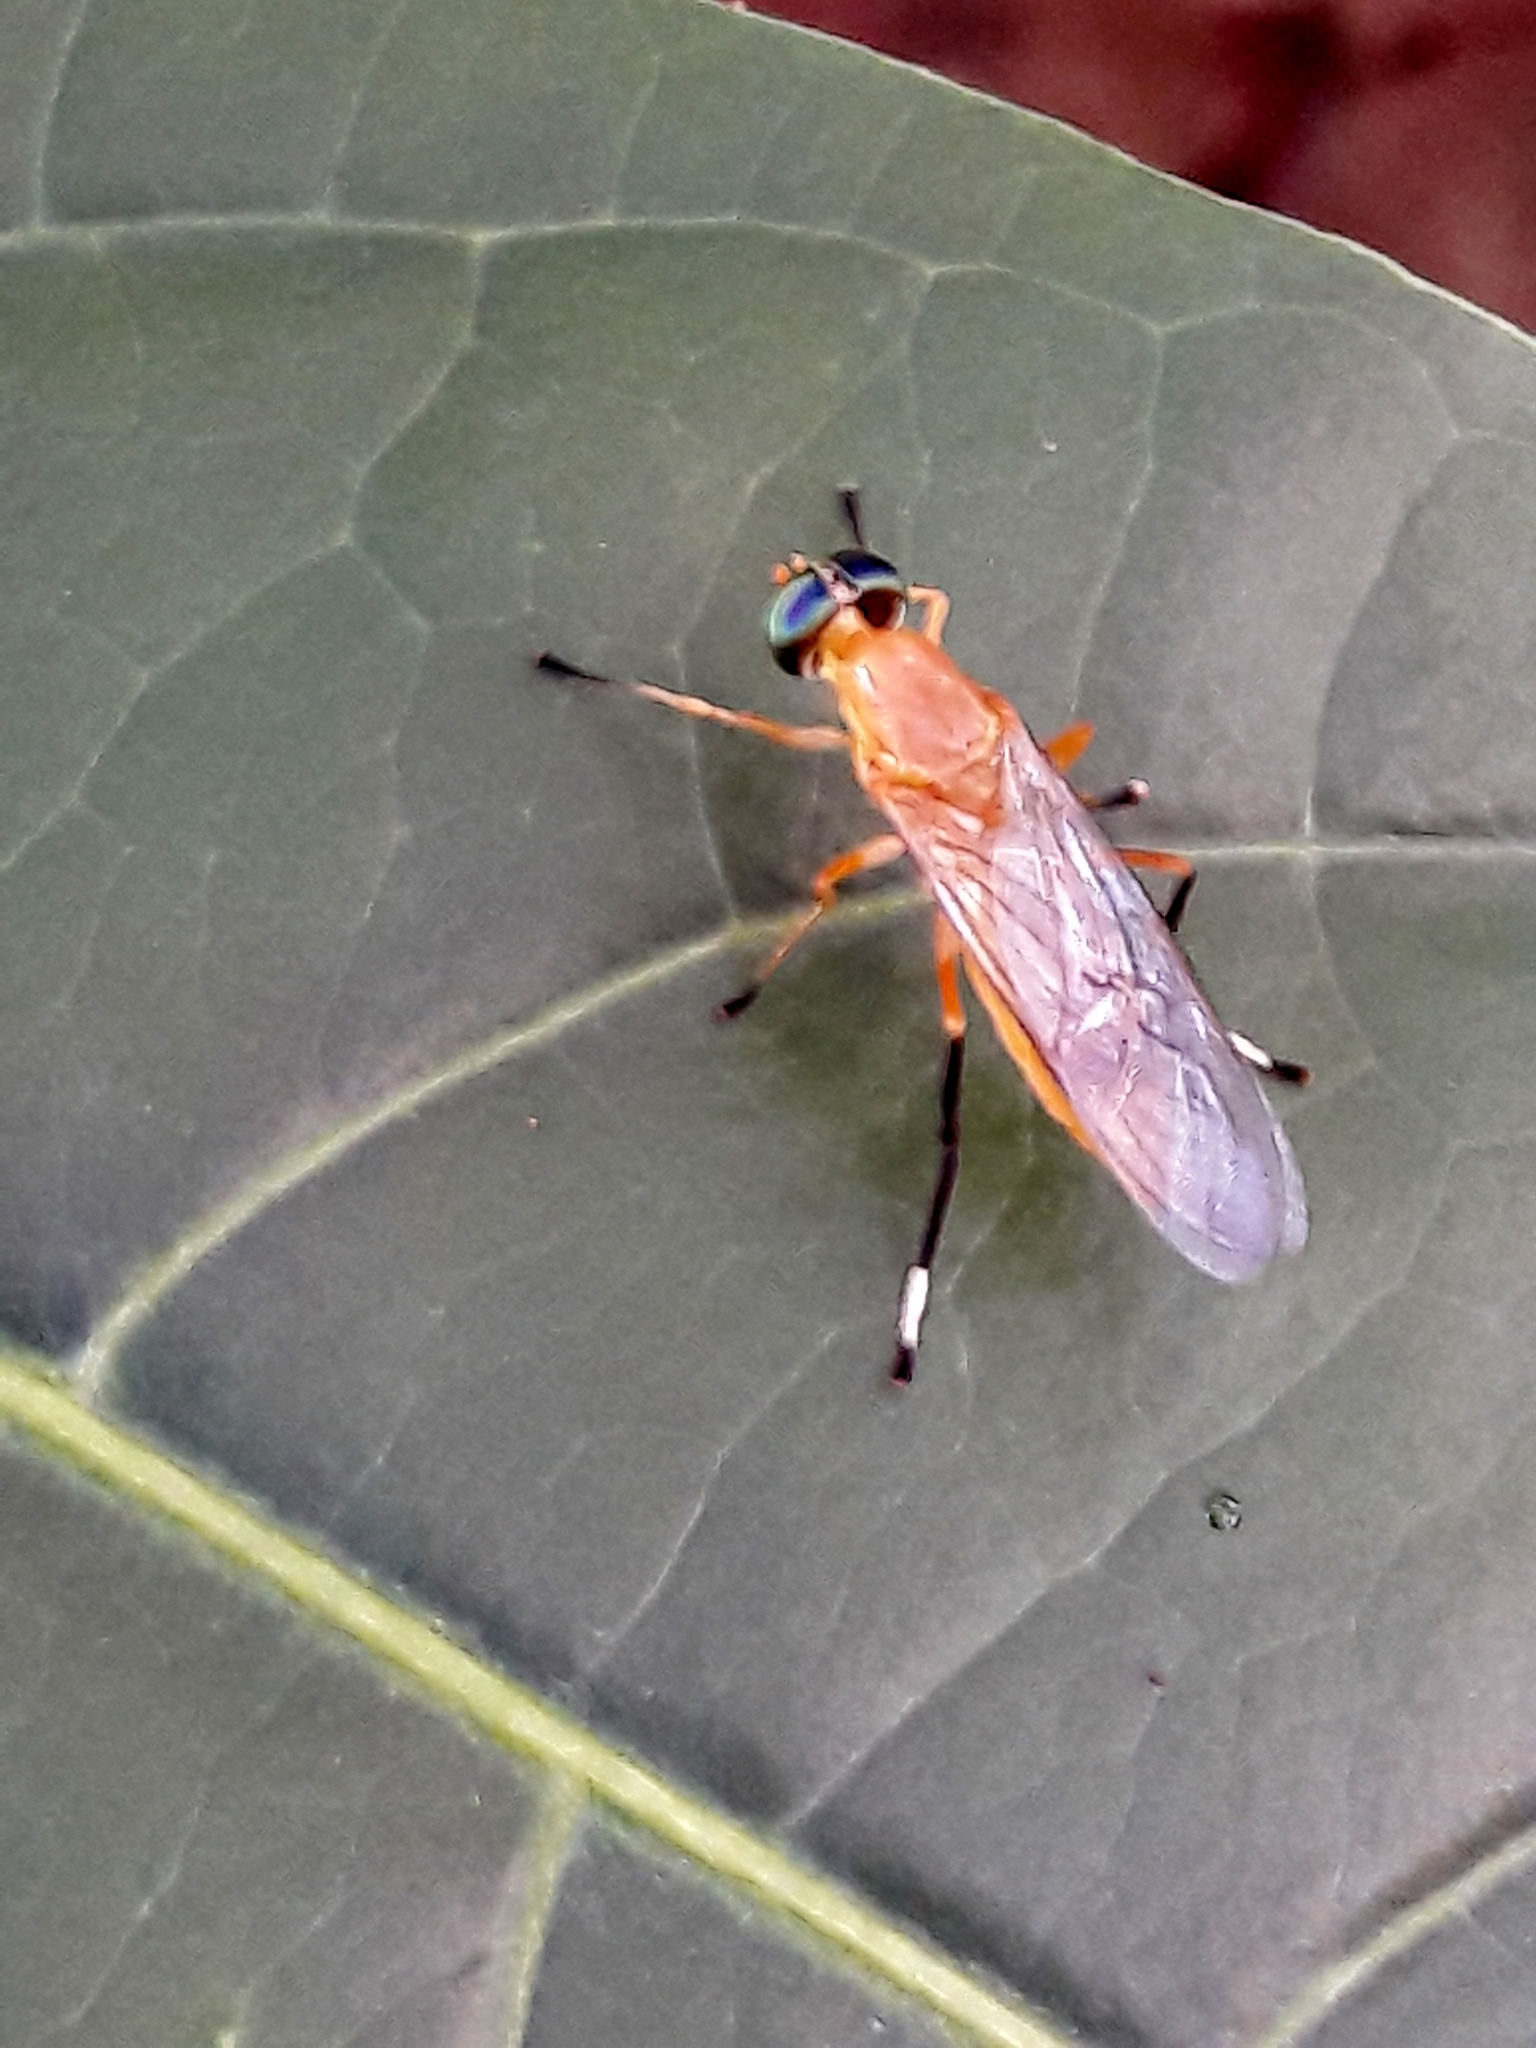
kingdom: Animalia
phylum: Arthropoda
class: Insecta
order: Diptera
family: Stratiomyidae
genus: Ptecticus
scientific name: Ptecticus testaceus
